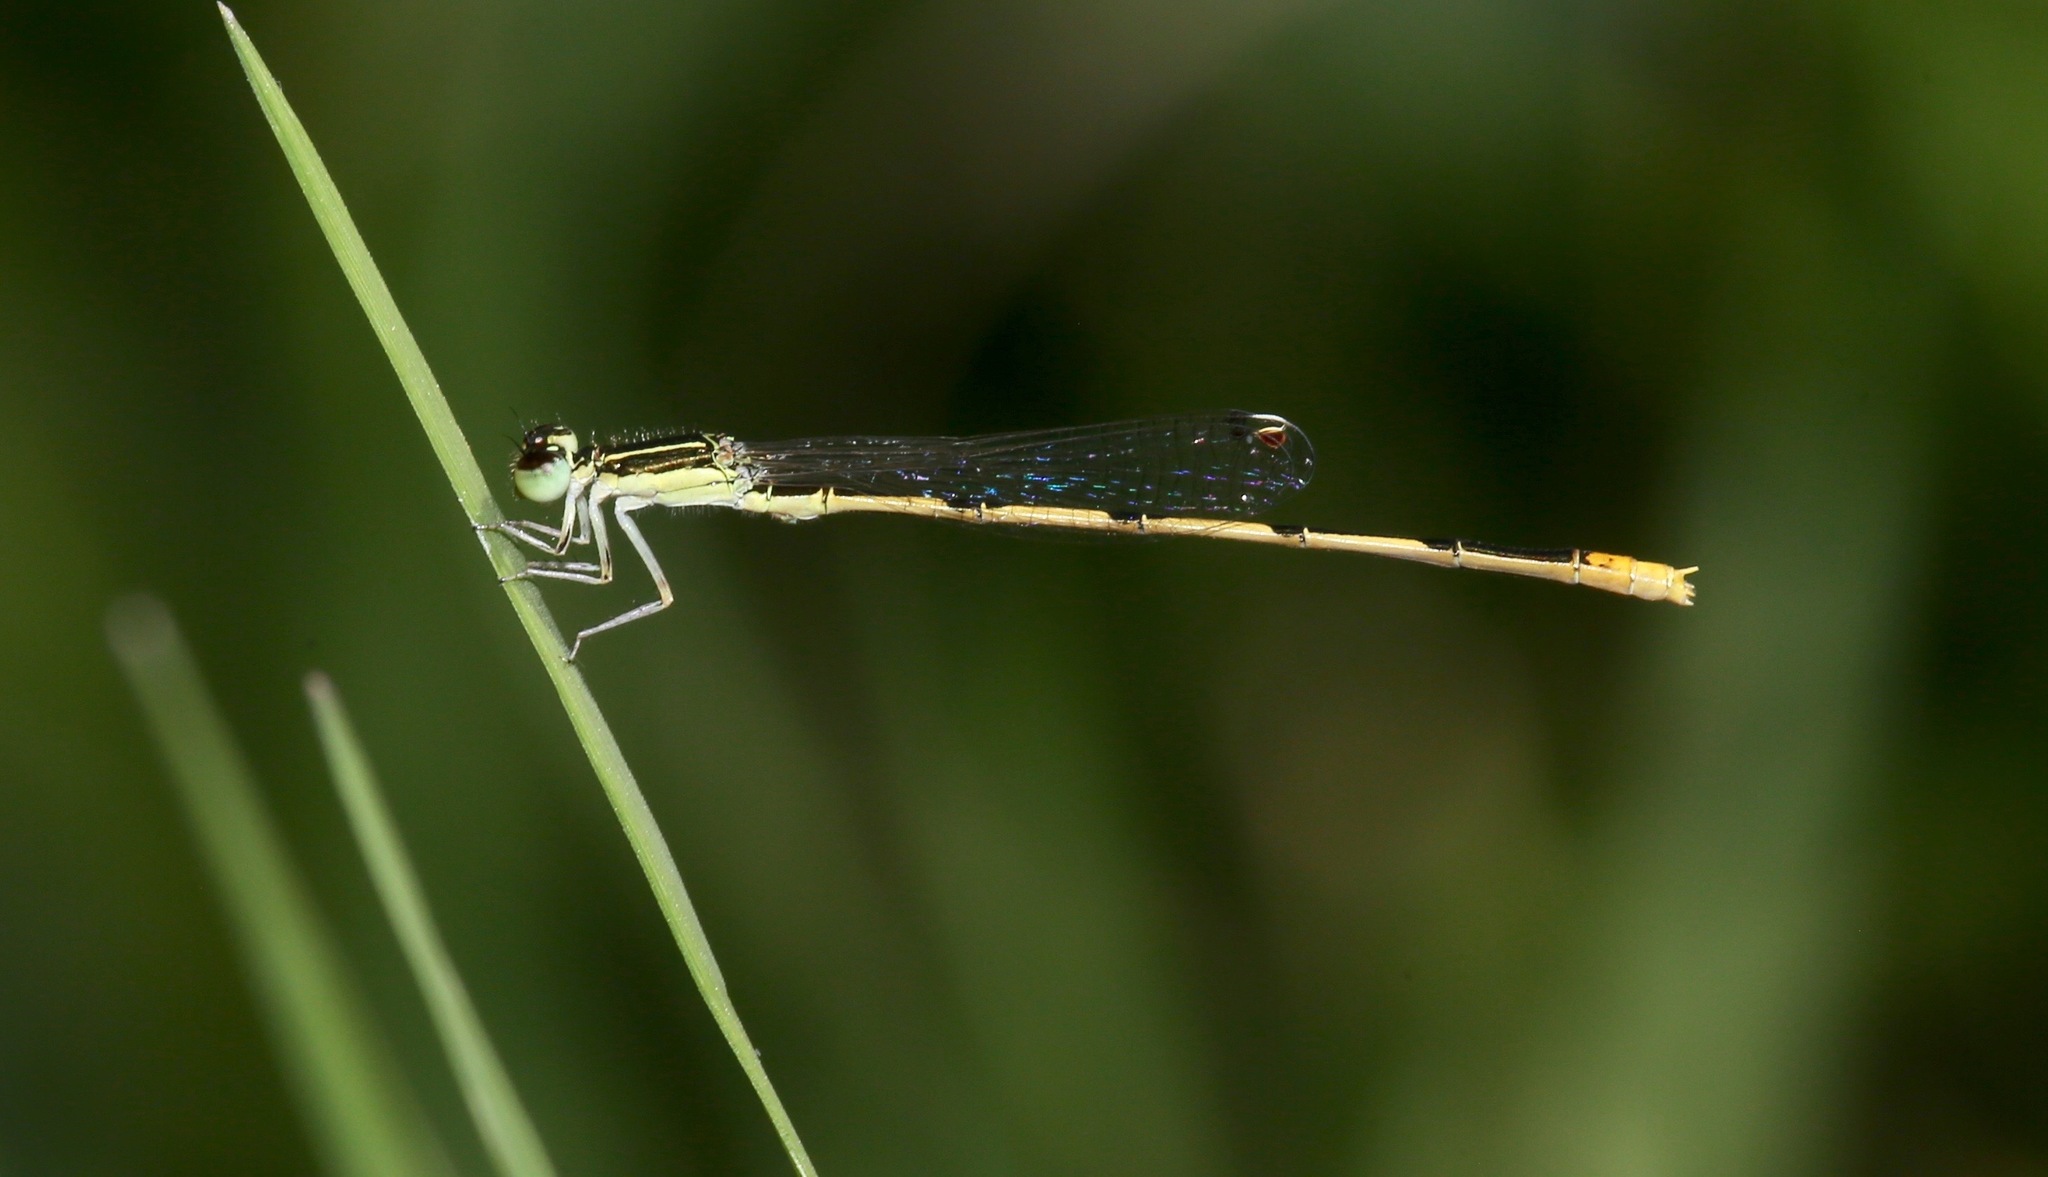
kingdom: Animalia
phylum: Arthropoda
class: Insecta
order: Odonata
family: Coenagrionidae
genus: Ischnura
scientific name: Ischnura hastata
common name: Citrine forktail
